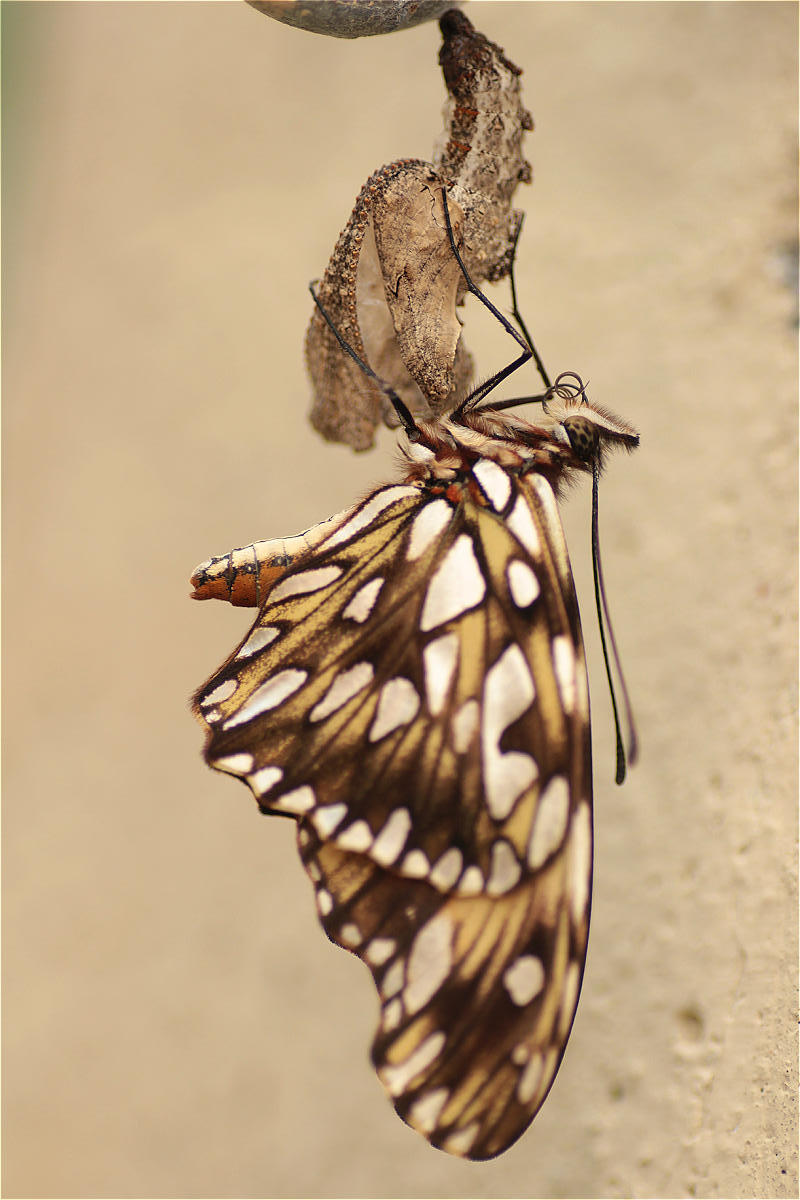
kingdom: Animalia
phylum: Arthropoda
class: Insecta
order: Lepidoptera
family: Nymphalidae
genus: Dione
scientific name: Dione juno
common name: Juno silverspot
